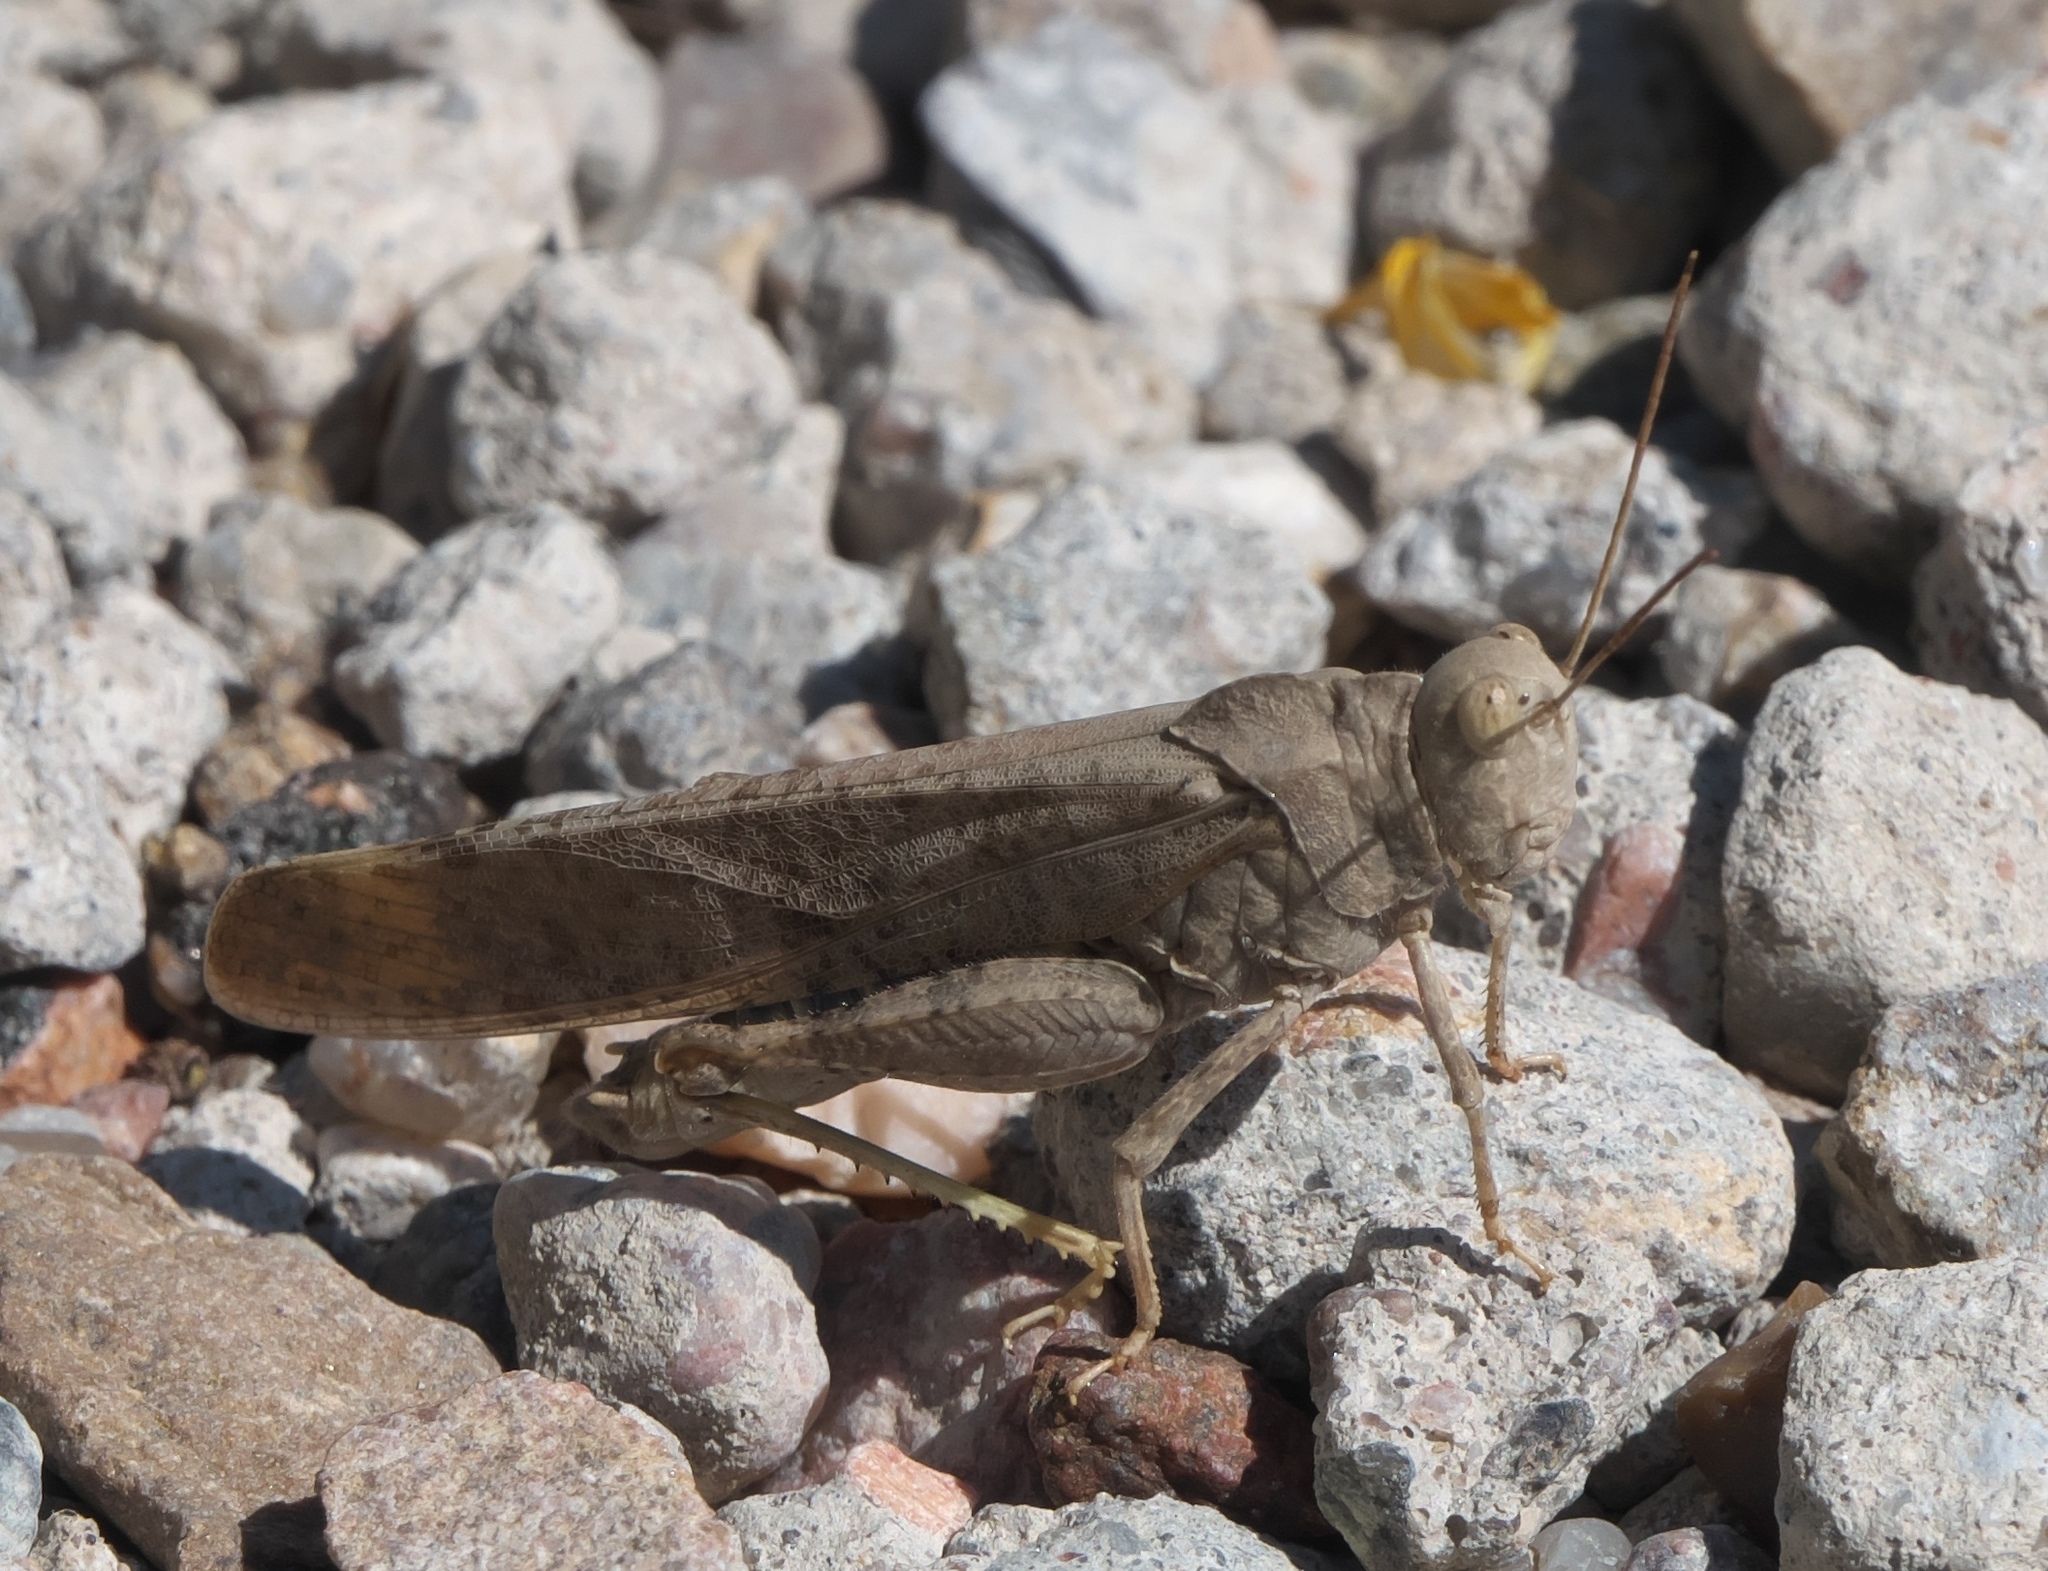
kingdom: Animalia
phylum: Arthropoda
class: Insecta
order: Orthoptera
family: Acrididae
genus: Dissosteira
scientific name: Dissosteira carolina
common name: Carolina grasshopper
